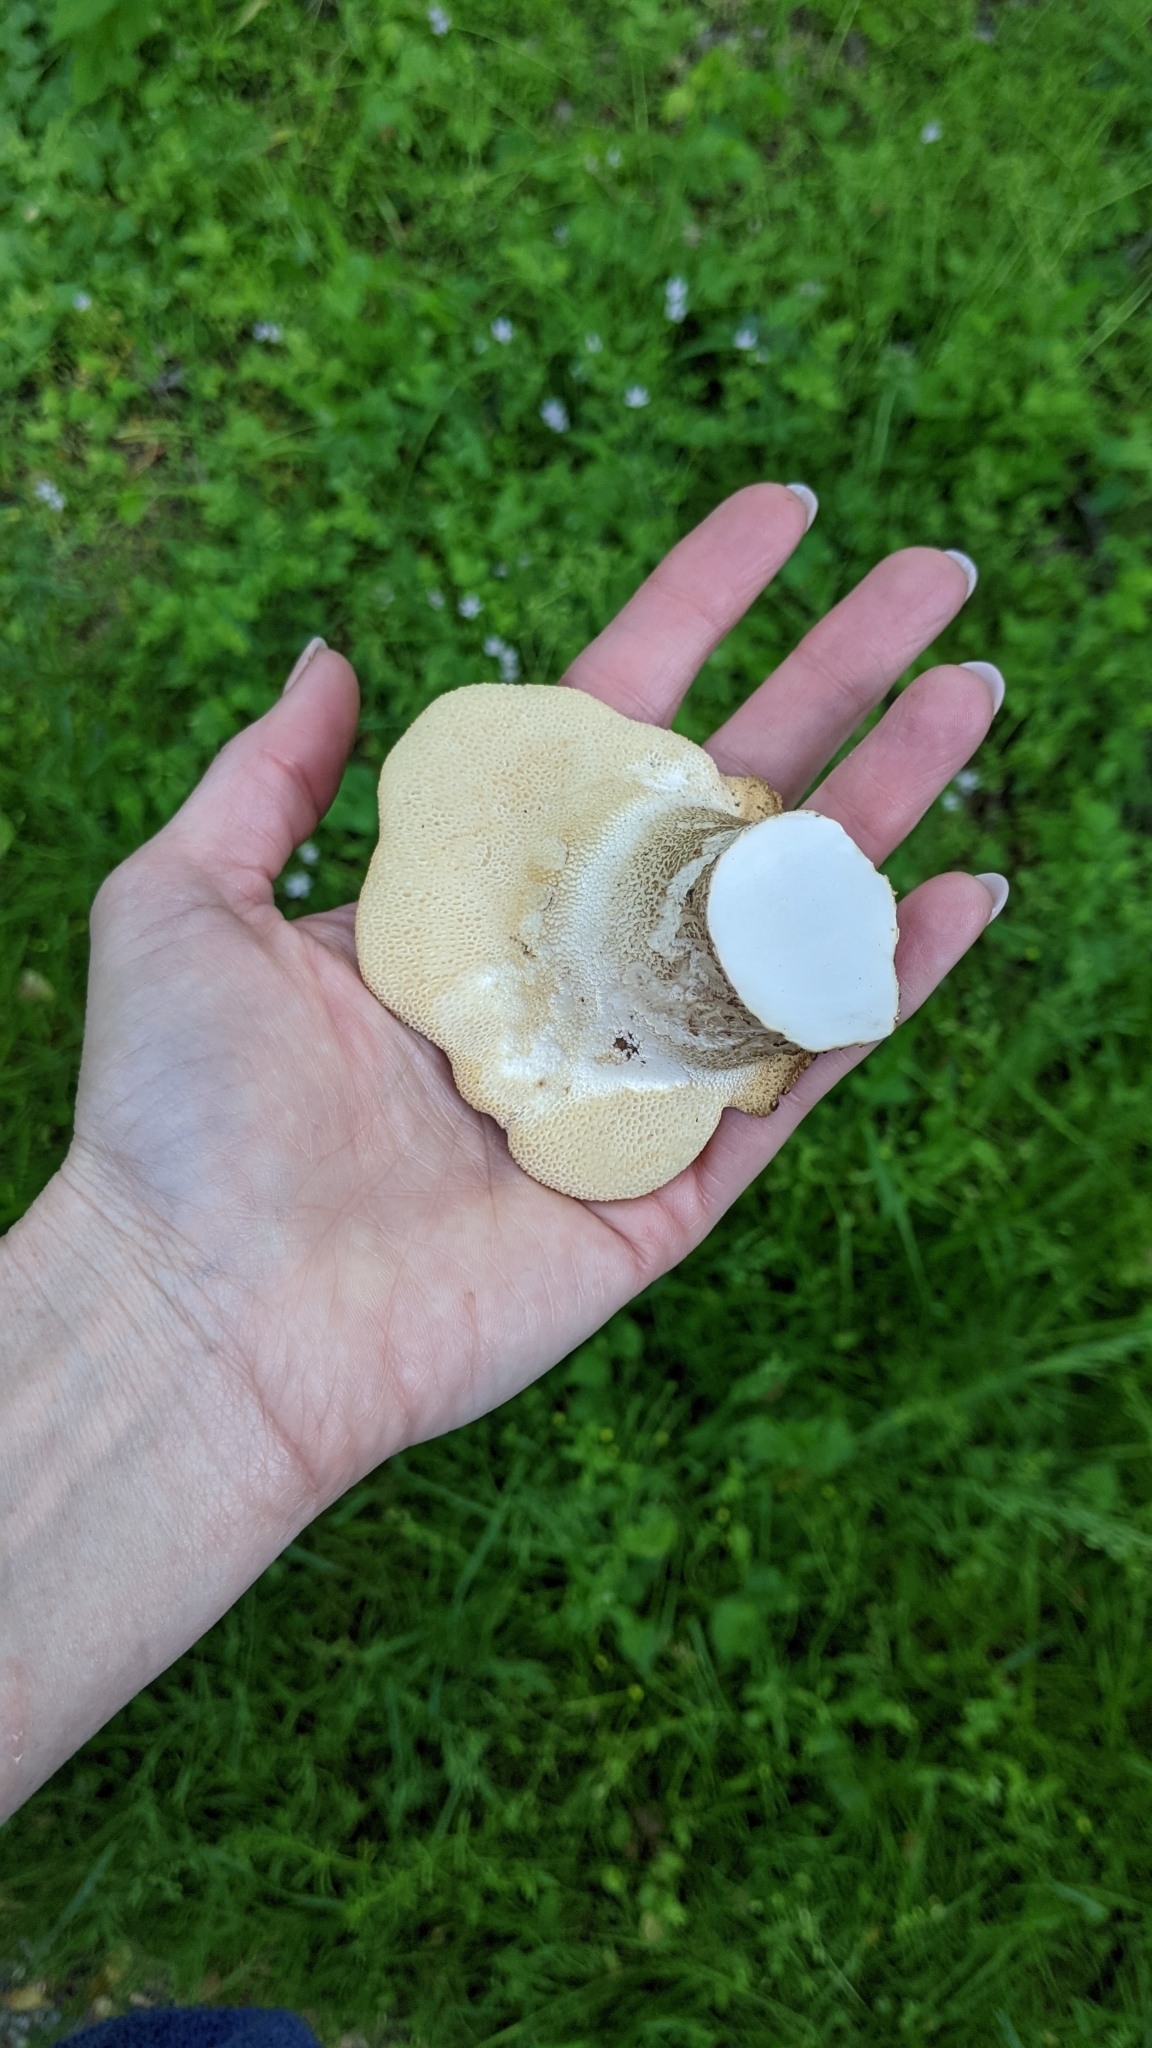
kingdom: Fungi
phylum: Basidiomycota
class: Agaricomycetes
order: Polyporales
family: Polyporaceae
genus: Cerioporus
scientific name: Cerioporus squamosus
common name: Dryad's saddle
